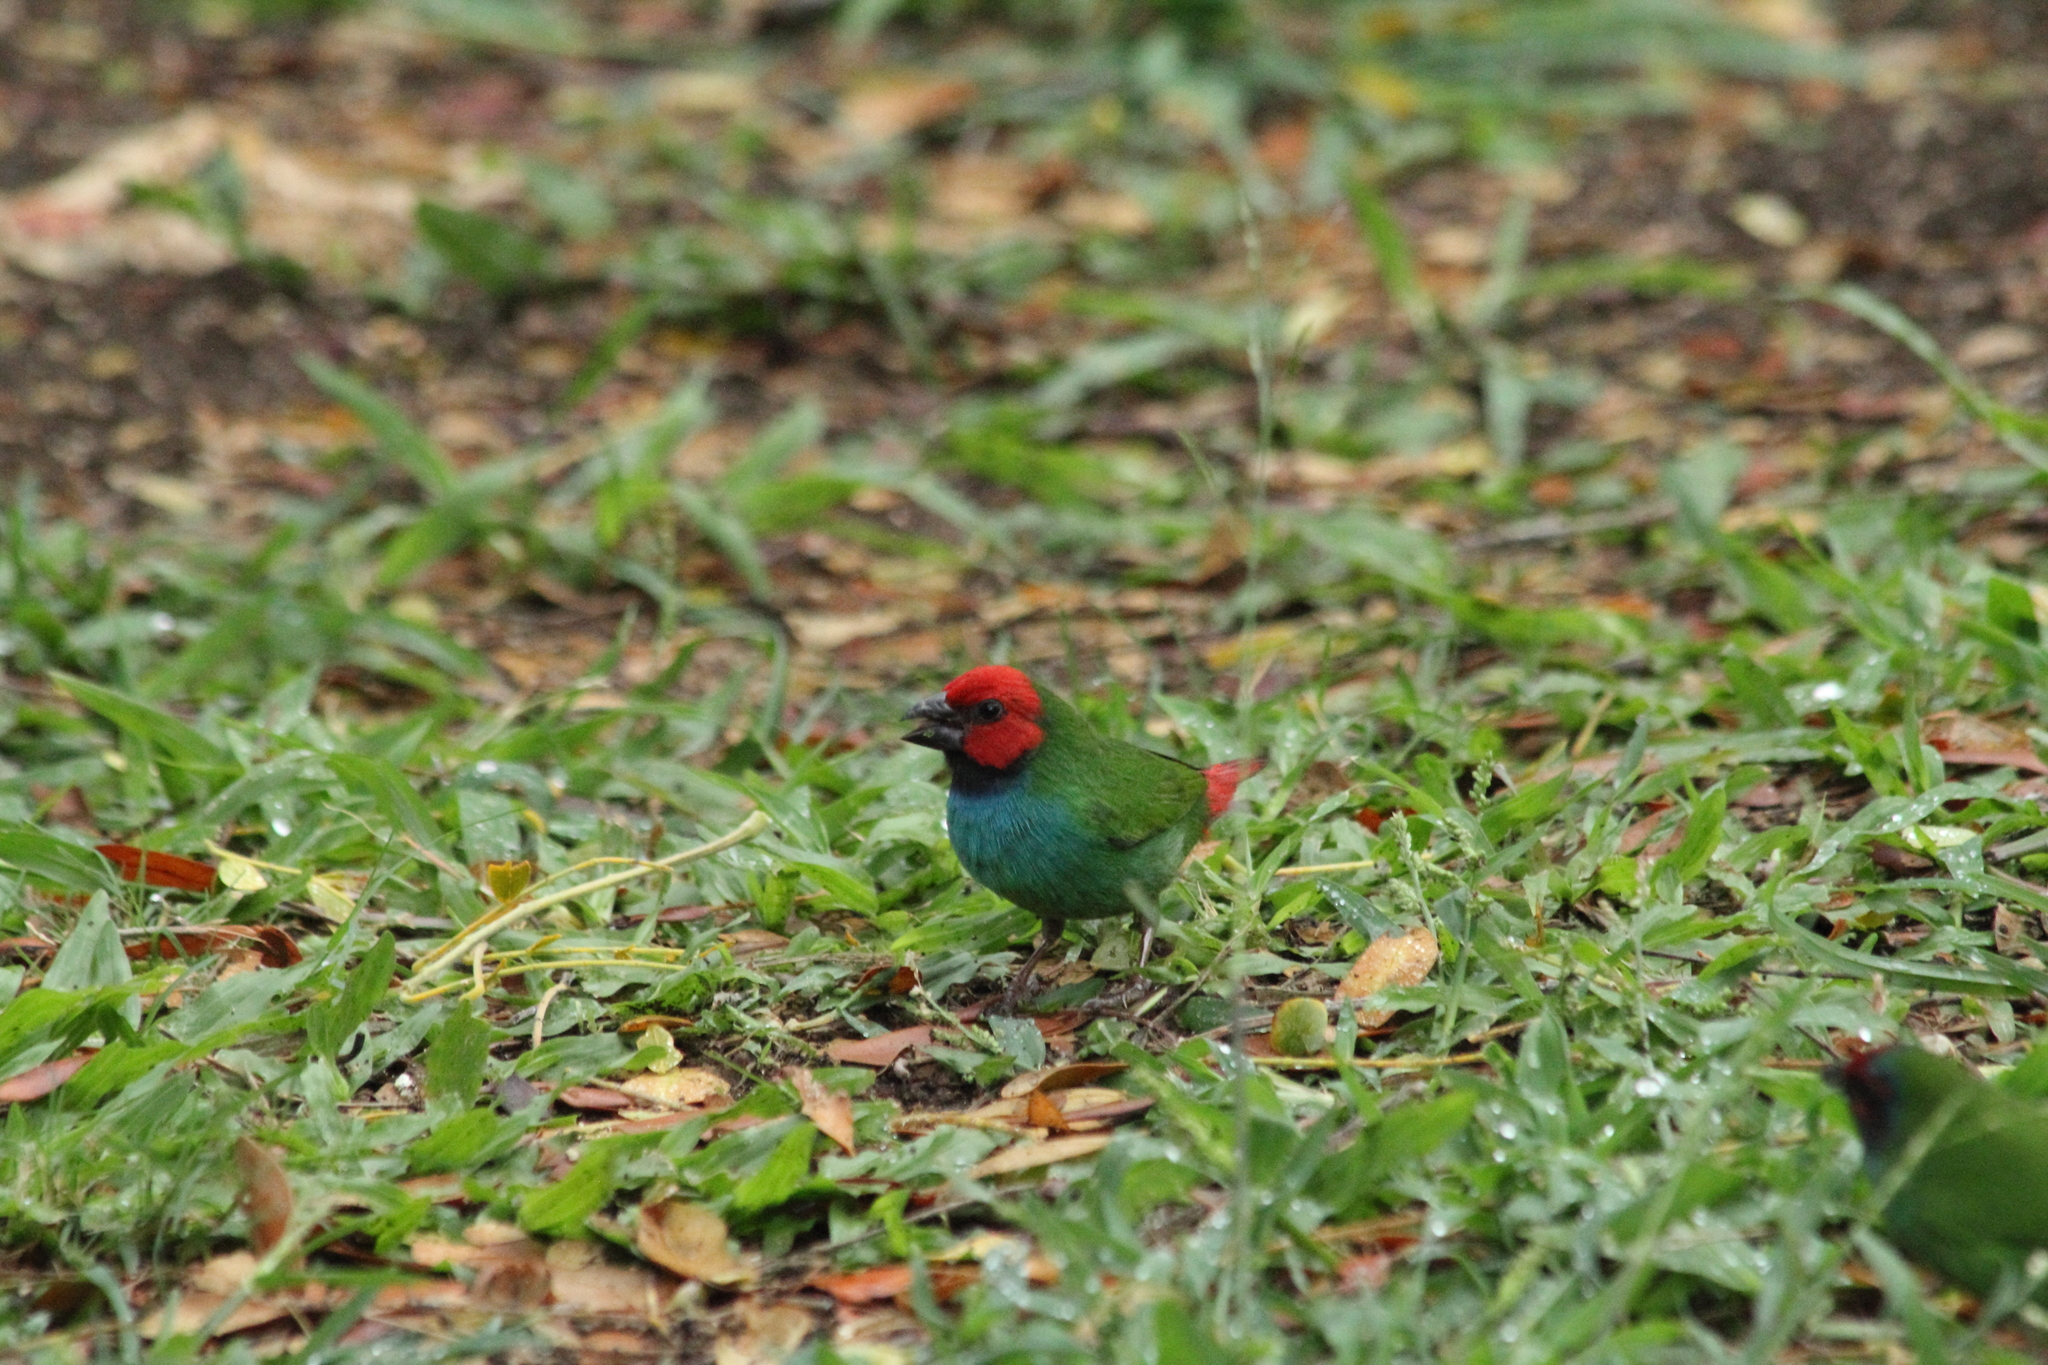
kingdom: Animalia
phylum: Chordata
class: Aves
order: Passeriformes
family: Estrildidae
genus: Erythrura
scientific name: Erythrura pealii
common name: Fiji parrotfinch
